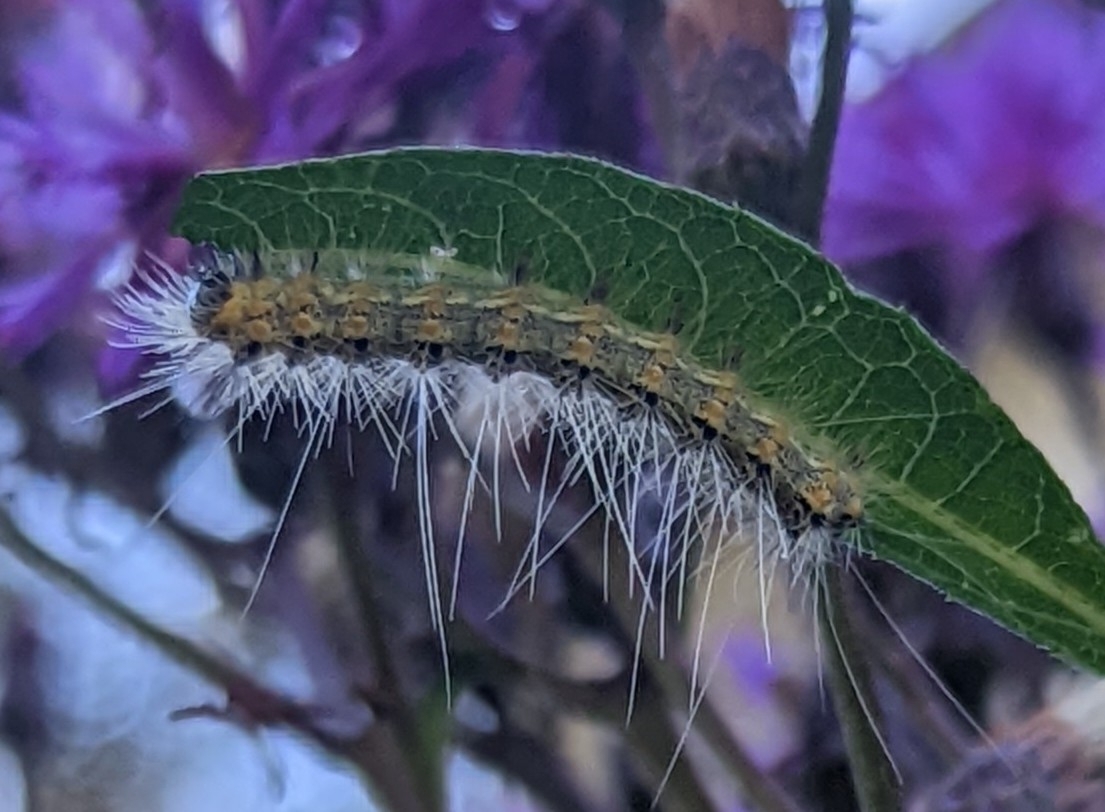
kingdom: Animalia
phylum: Arthropoda
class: Insecta
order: Lepidoptera
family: Erebidae
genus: Hyphantria
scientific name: Hyphantria cunea
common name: American white moth
